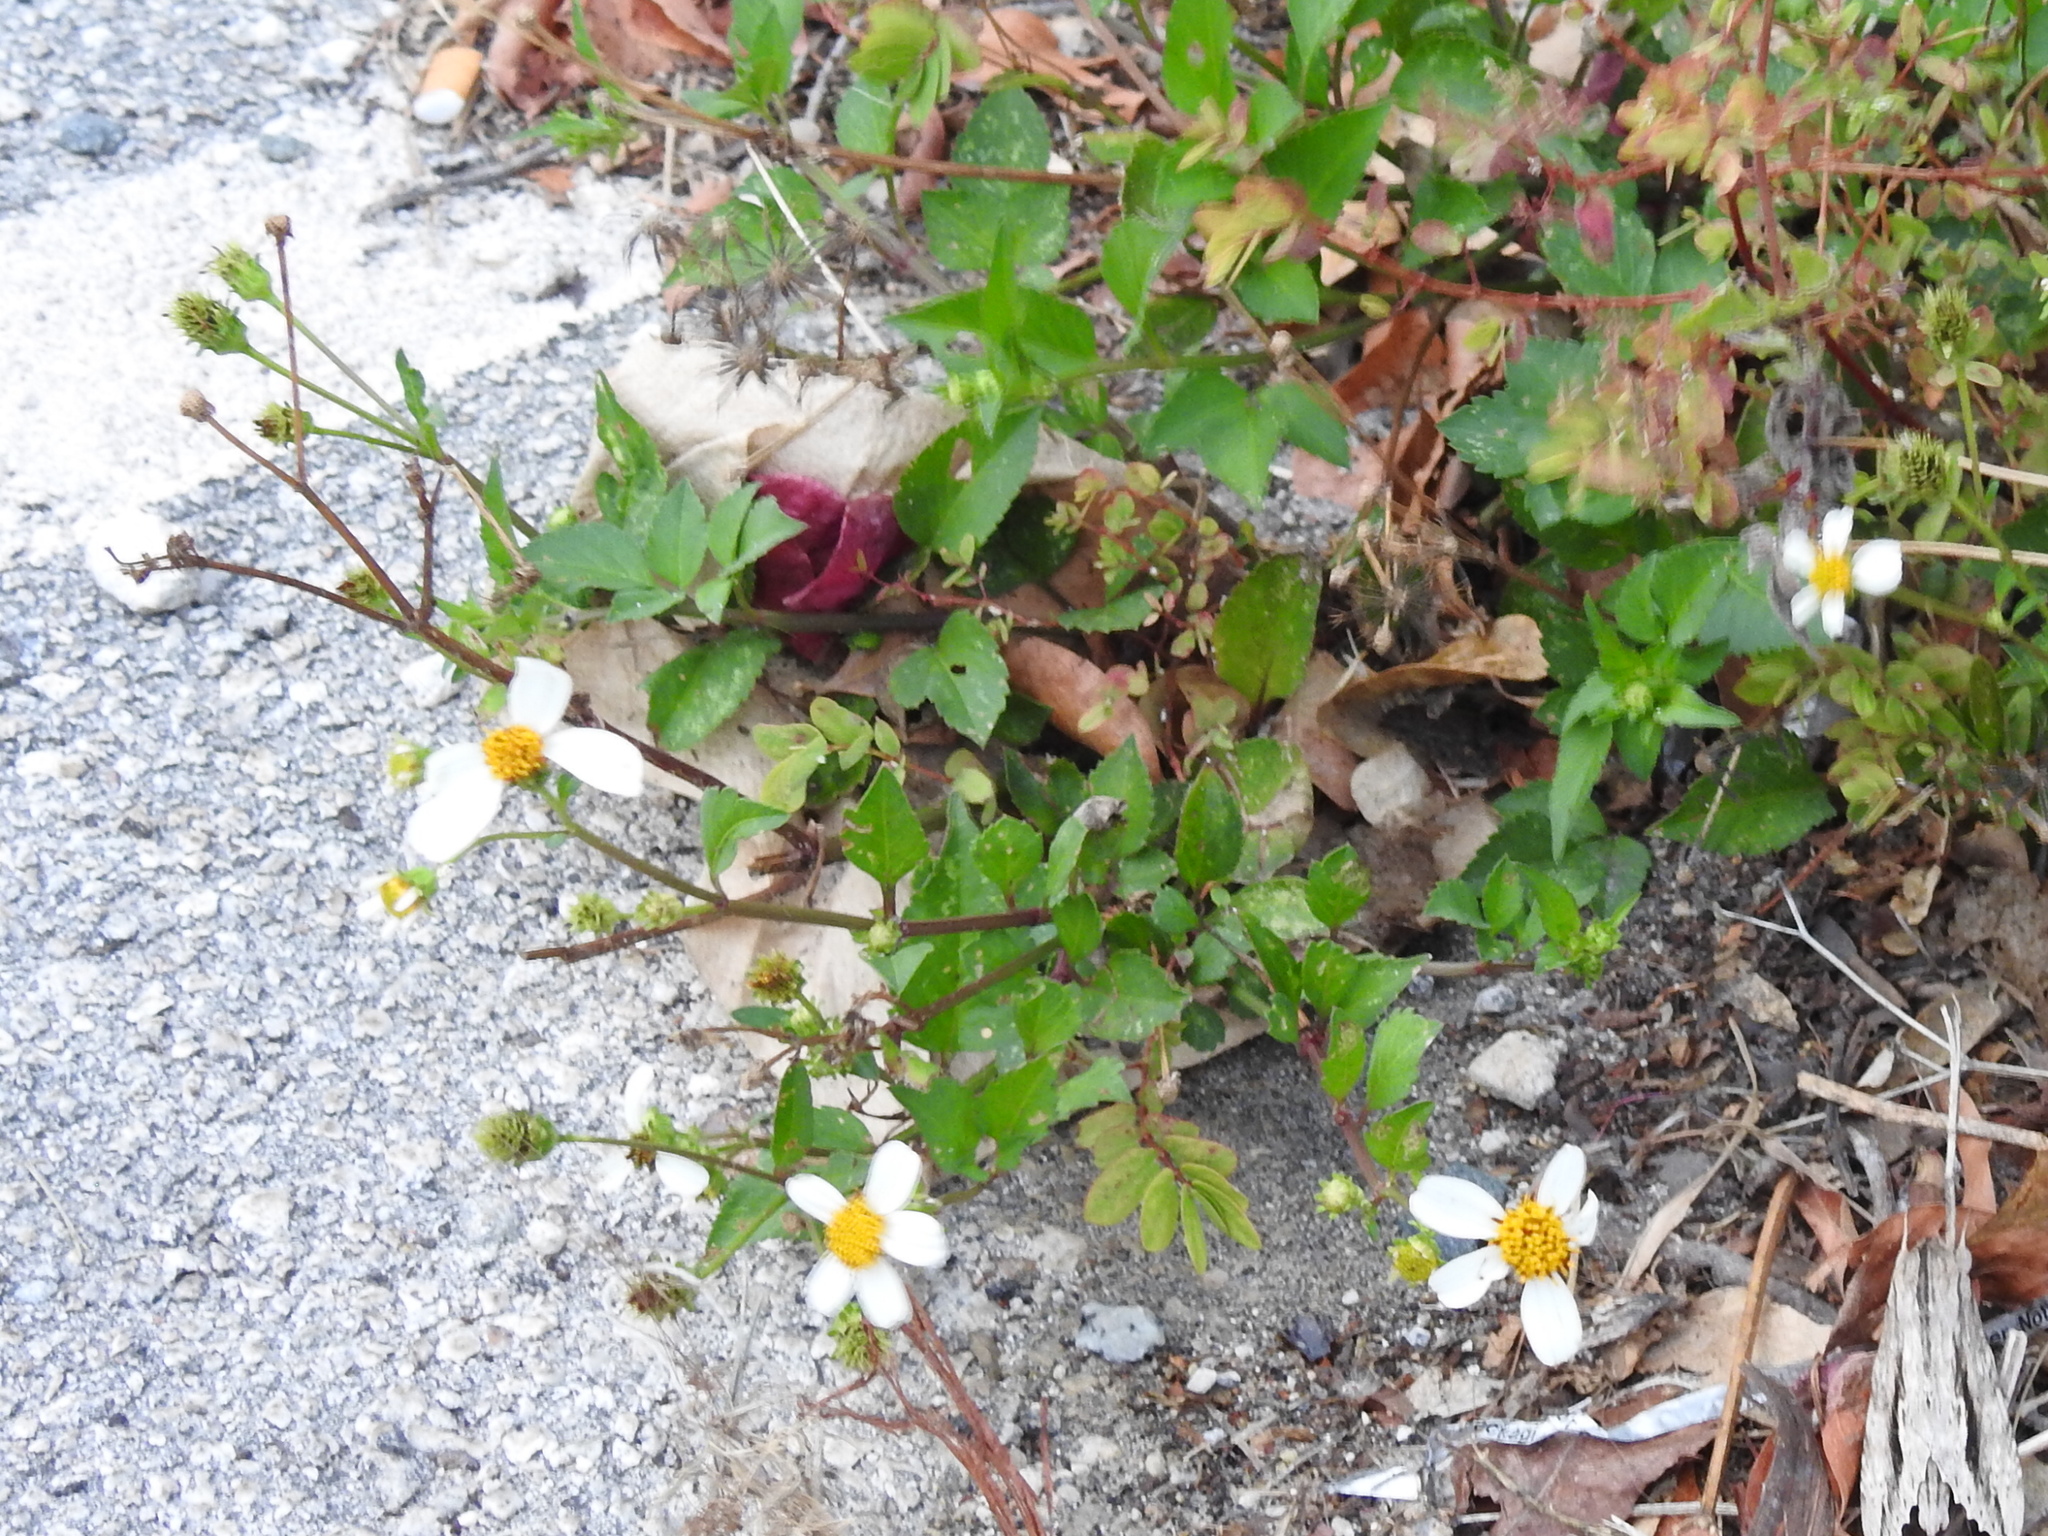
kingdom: Plantae
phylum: Tracheophyta
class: Magnoliopsida
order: Asterales
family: Asteraceae
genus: Bidens
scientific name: Bidens alba
